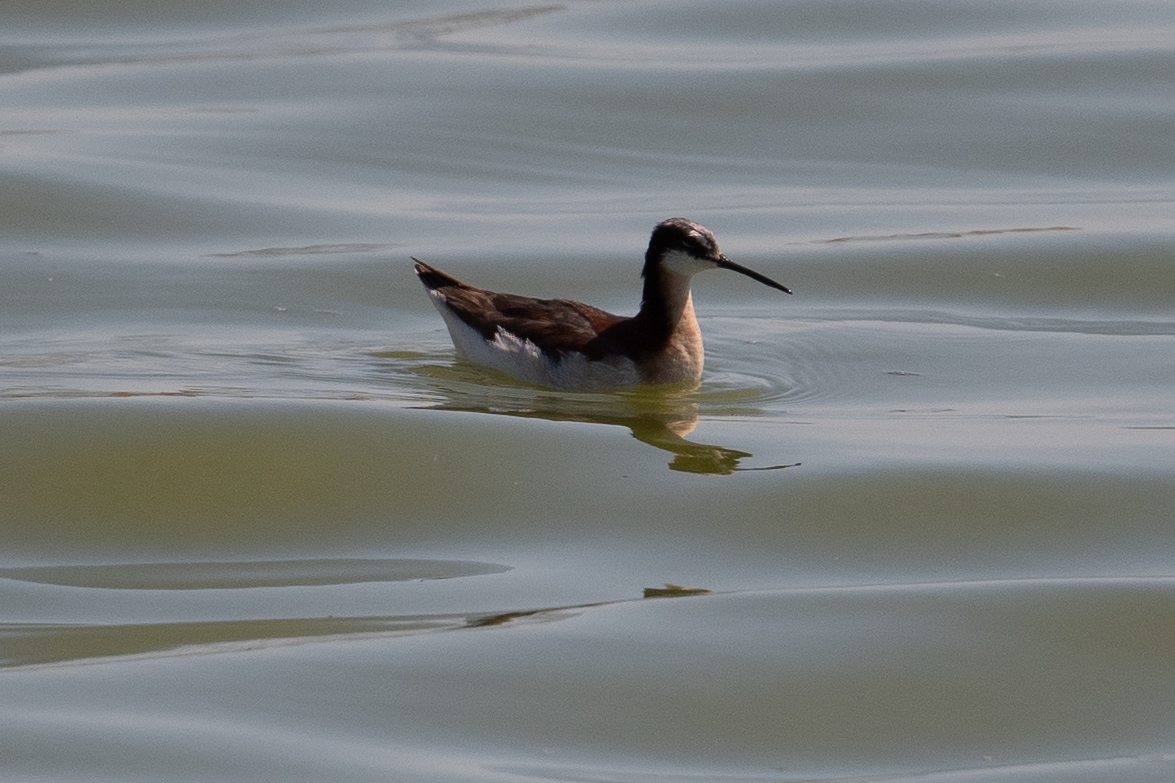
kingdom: Animalia
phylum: Chordata
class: Aves
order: Charadriiformes
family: Scolopacidae
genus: Phalaropus
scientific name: Phalaropus tricolor
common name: Wilson's phalarope
